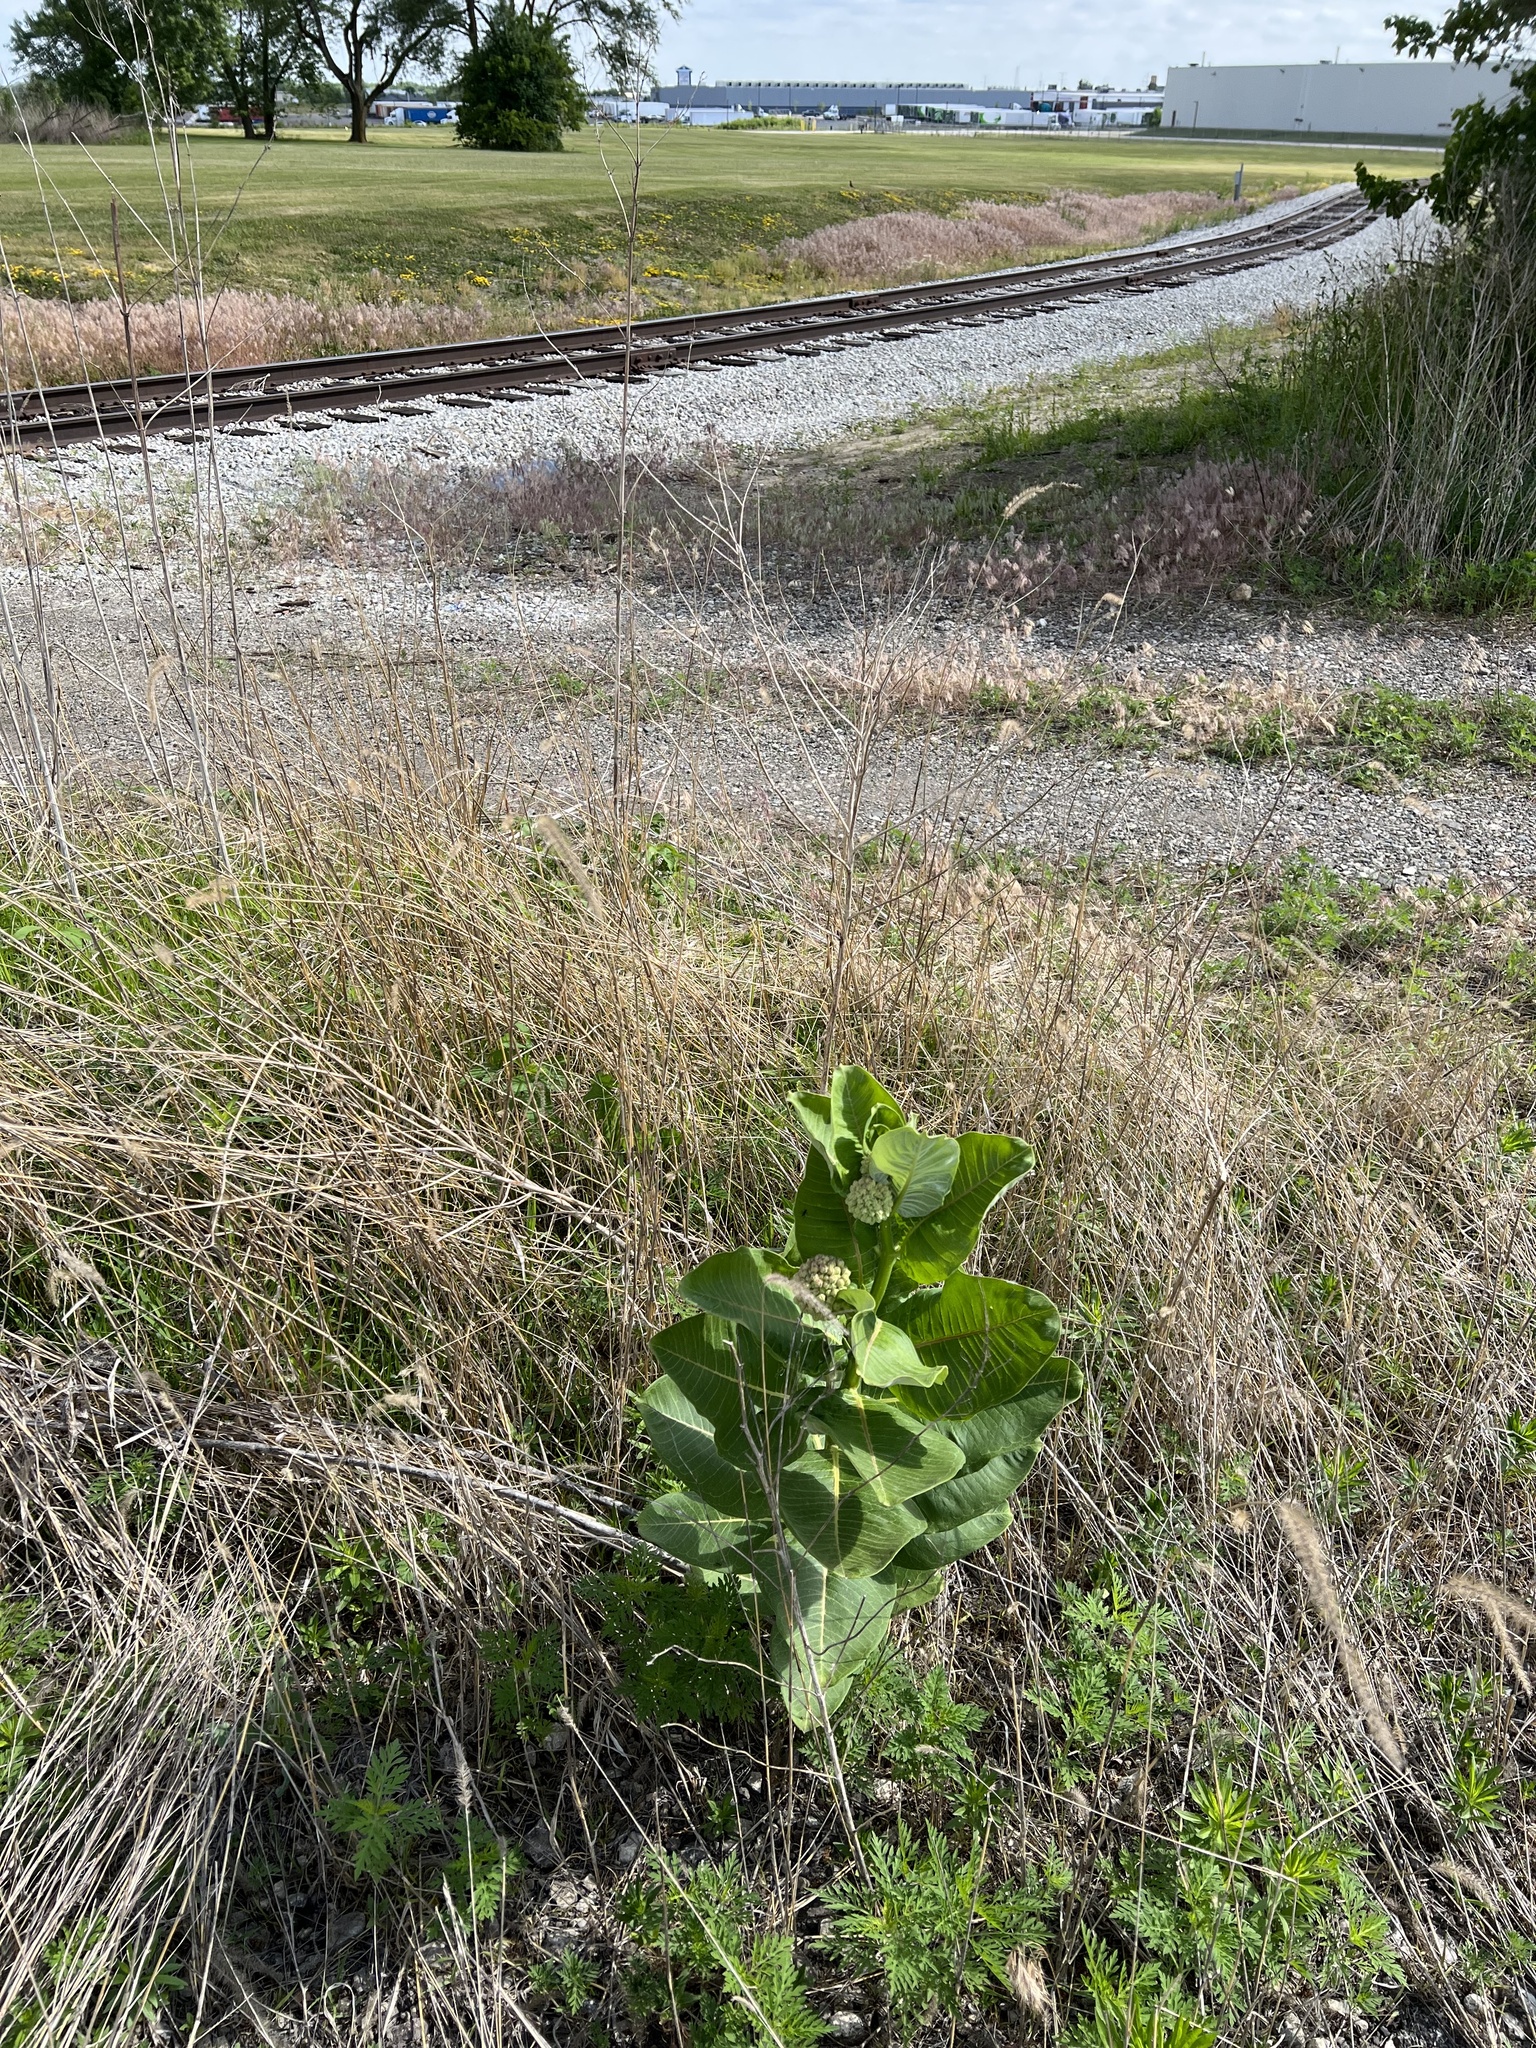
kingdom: Plantae
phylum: Tracheophyta
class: Magnoliopsida
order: Gentianales
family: Apocynaceae
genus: Asclepias
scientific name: Asclepias syriaca
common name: Common milkweed
